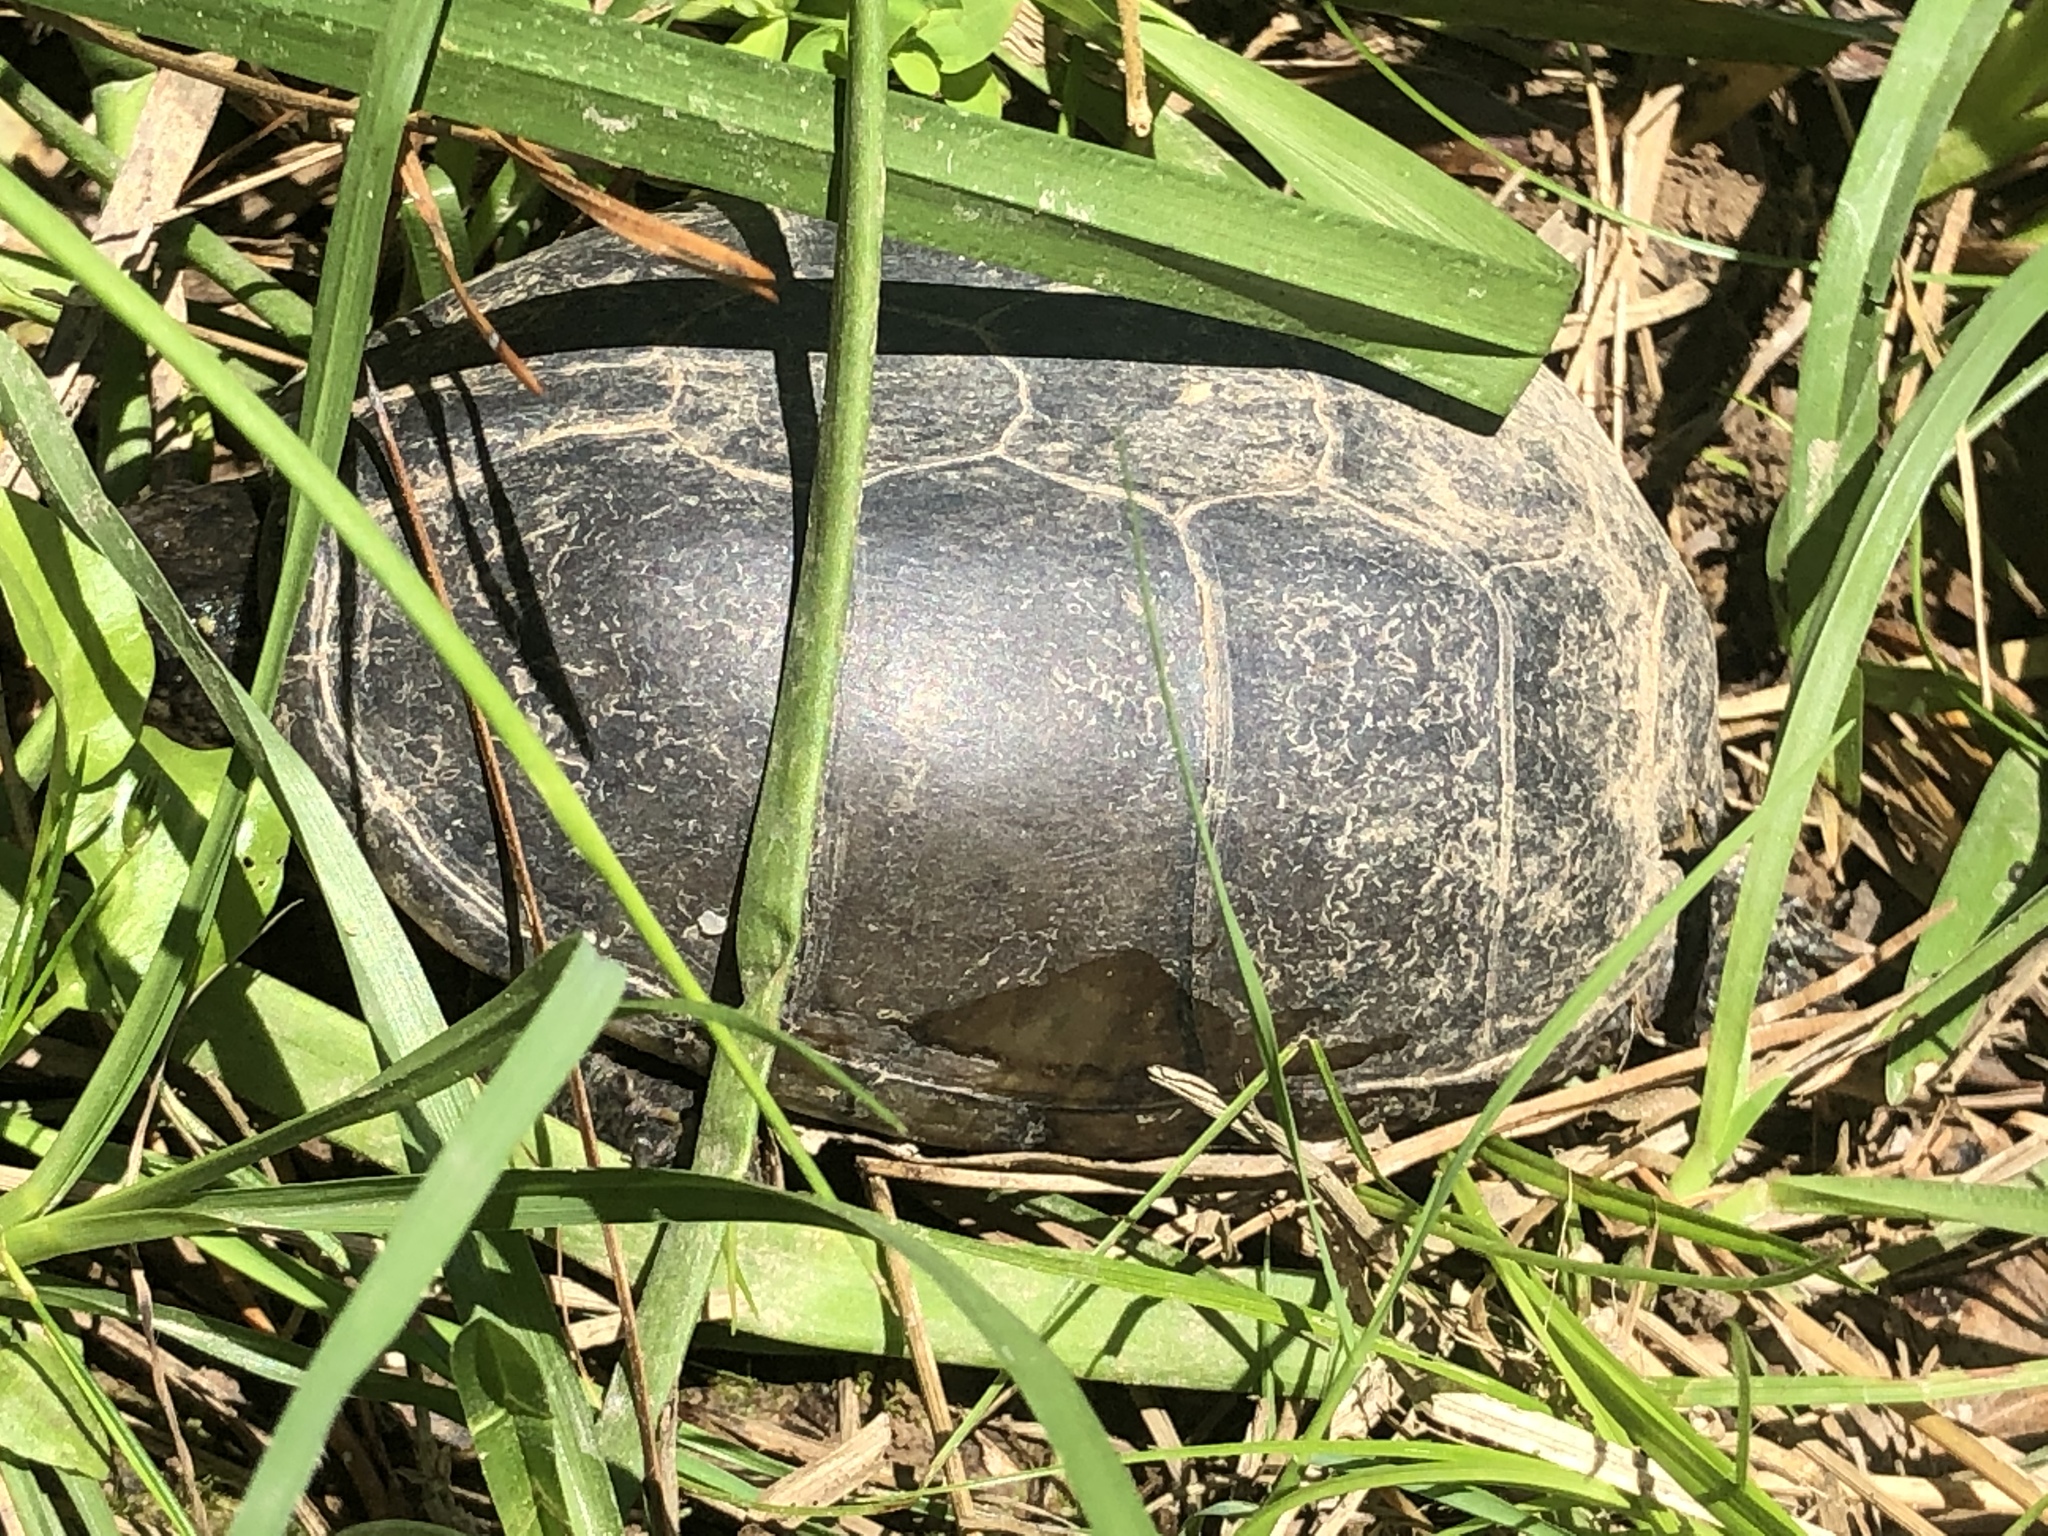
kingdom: Animalia
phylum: Chordata
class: Testudines
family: Kinosternidae
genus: Sternotherus
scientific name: Sternotherus odoratus
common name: Common musk turtle
